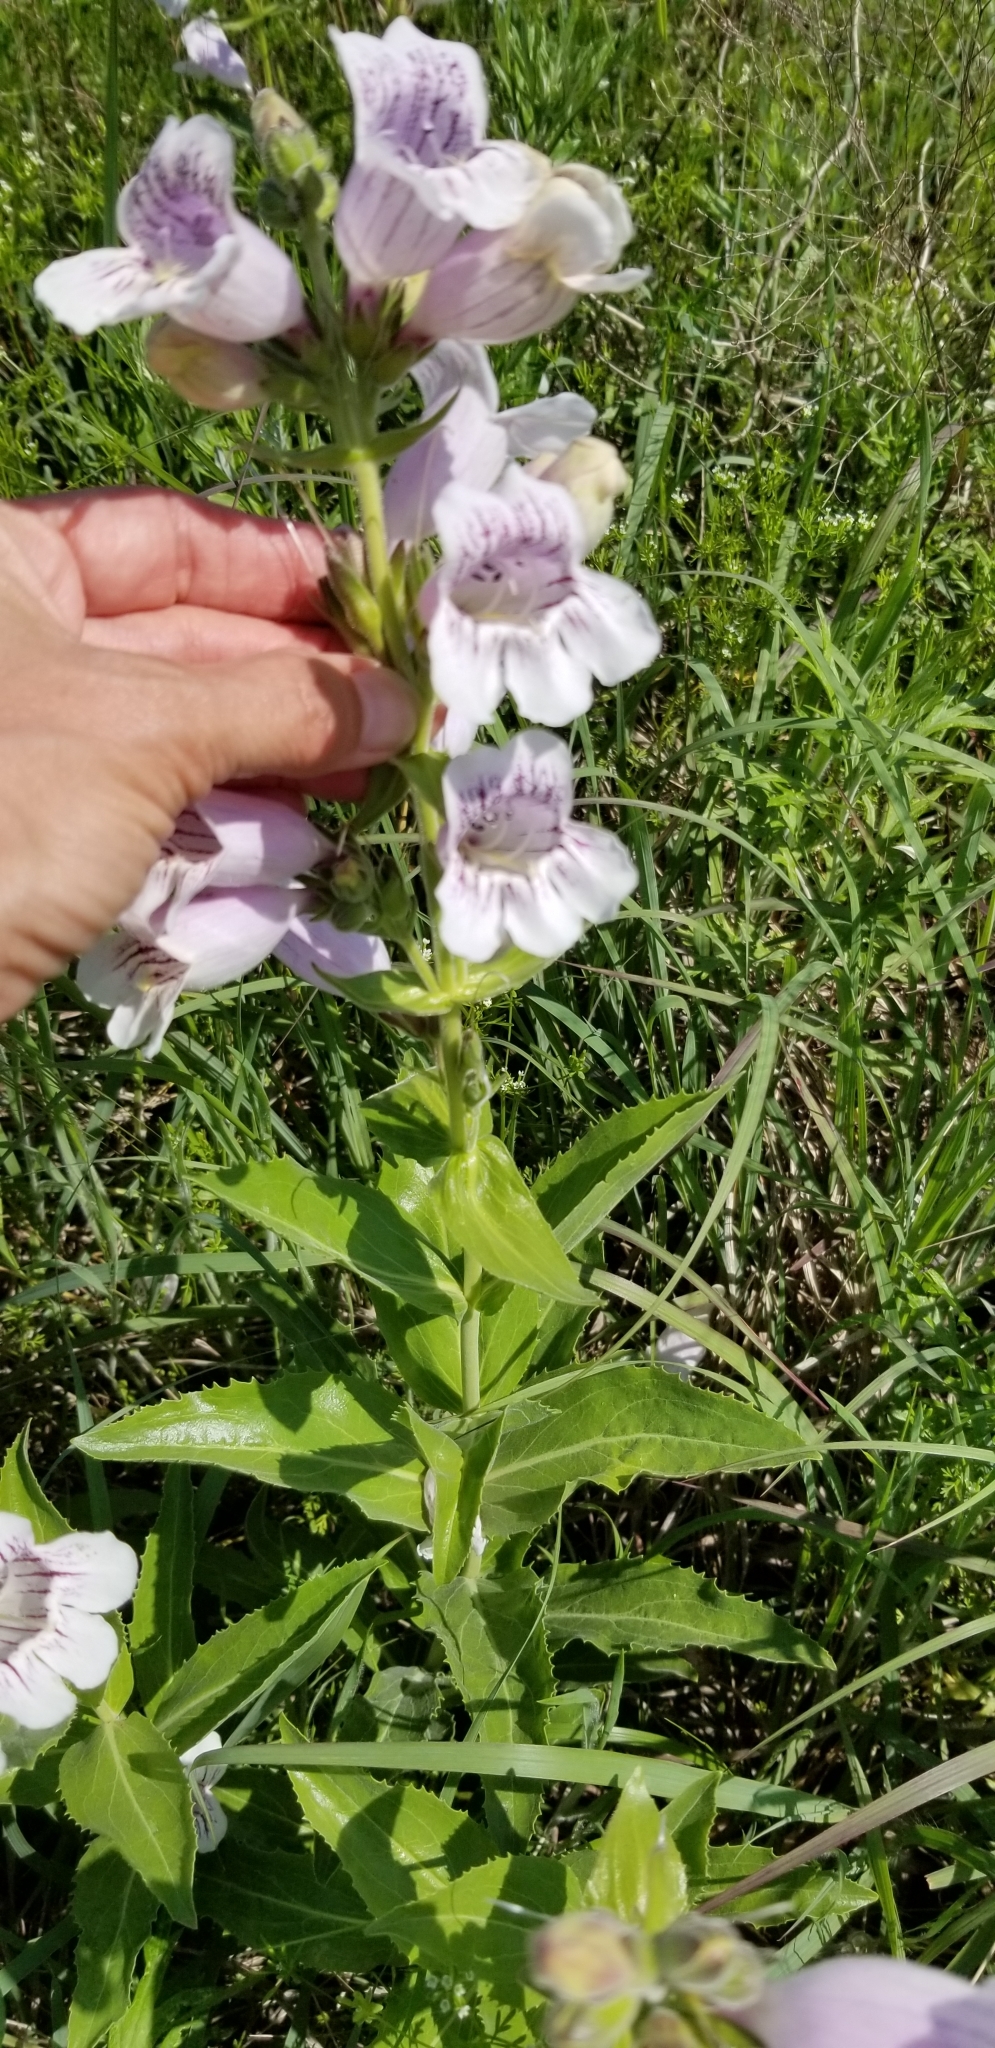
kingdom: Plantae
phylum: Tracheophyta
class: Magnoliopsida
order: Lamiales
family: Plantaginaceae
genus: Penstemon
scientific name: Penstemon cobaea
